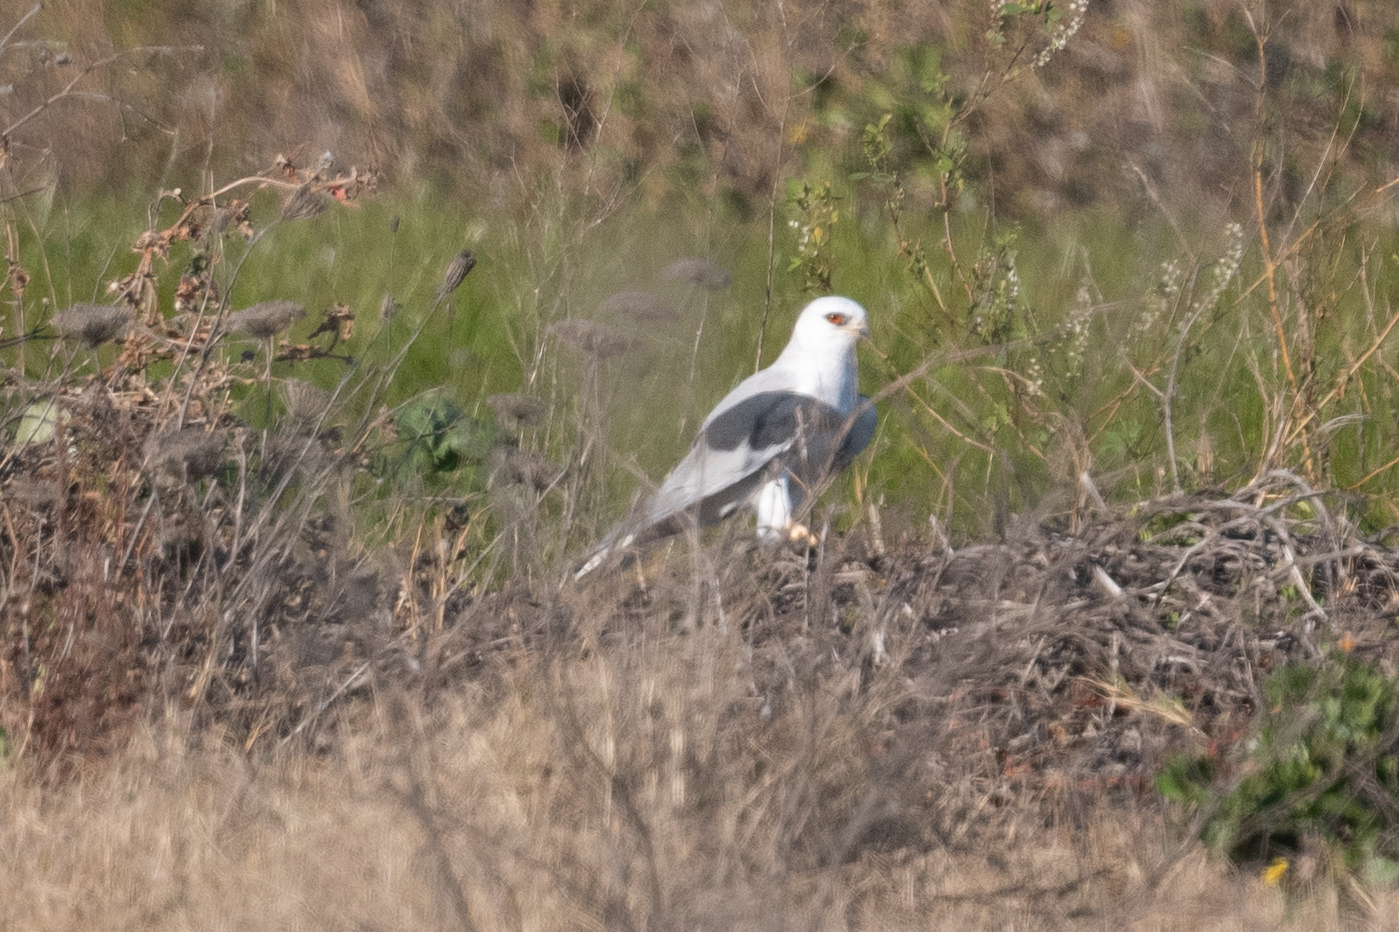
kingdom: Animalia
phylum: Chordata
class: Aves
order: Accipitriformes
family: Accipitridae
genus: Elanus
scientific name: Elanus leucurus
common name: White-tailed kite
